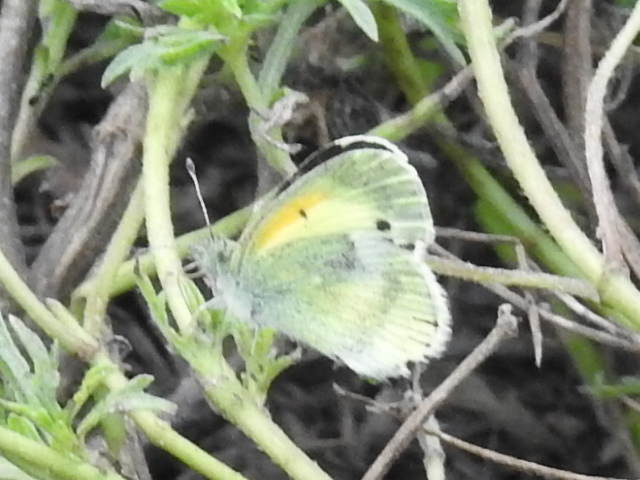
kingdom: Animalia
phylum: Arthropoda
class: Insecta
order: Lepidoptera
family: Pieridae
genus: Nathalis
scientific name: Nathalis iole
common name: Dainty sulphur
